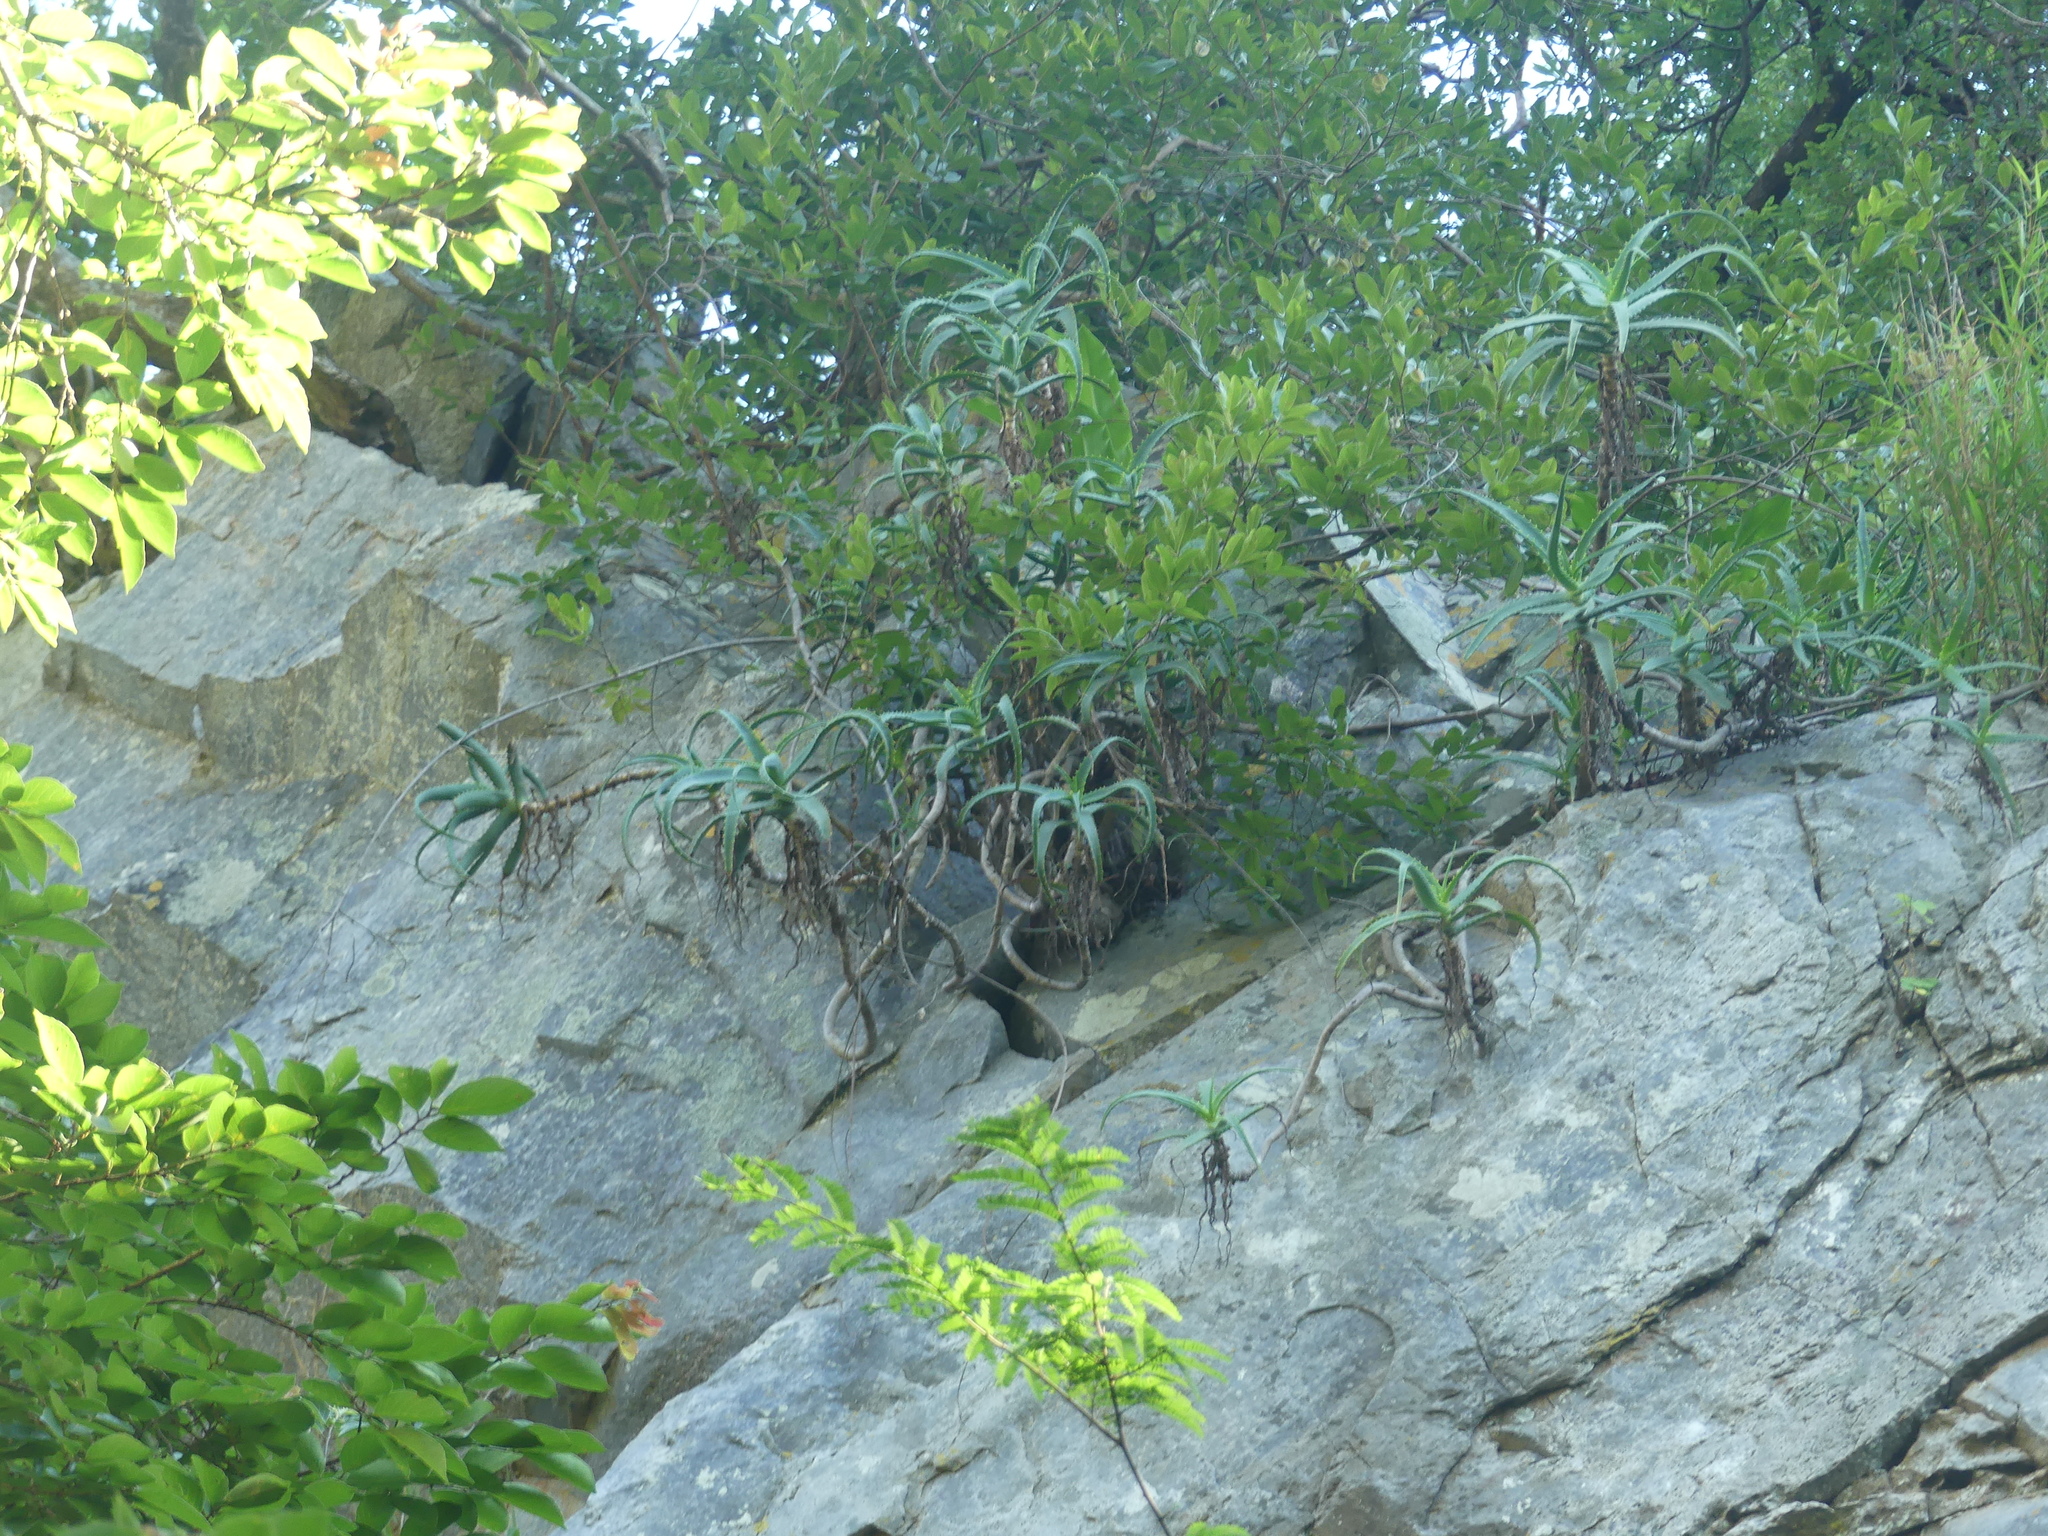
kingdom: Plantae
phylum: Tracheophyta
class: Liliopsida
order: Asparagales
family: Asphodelaceae
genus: Aloe
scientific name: Aloe arborescens
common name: Candelabra aloe
